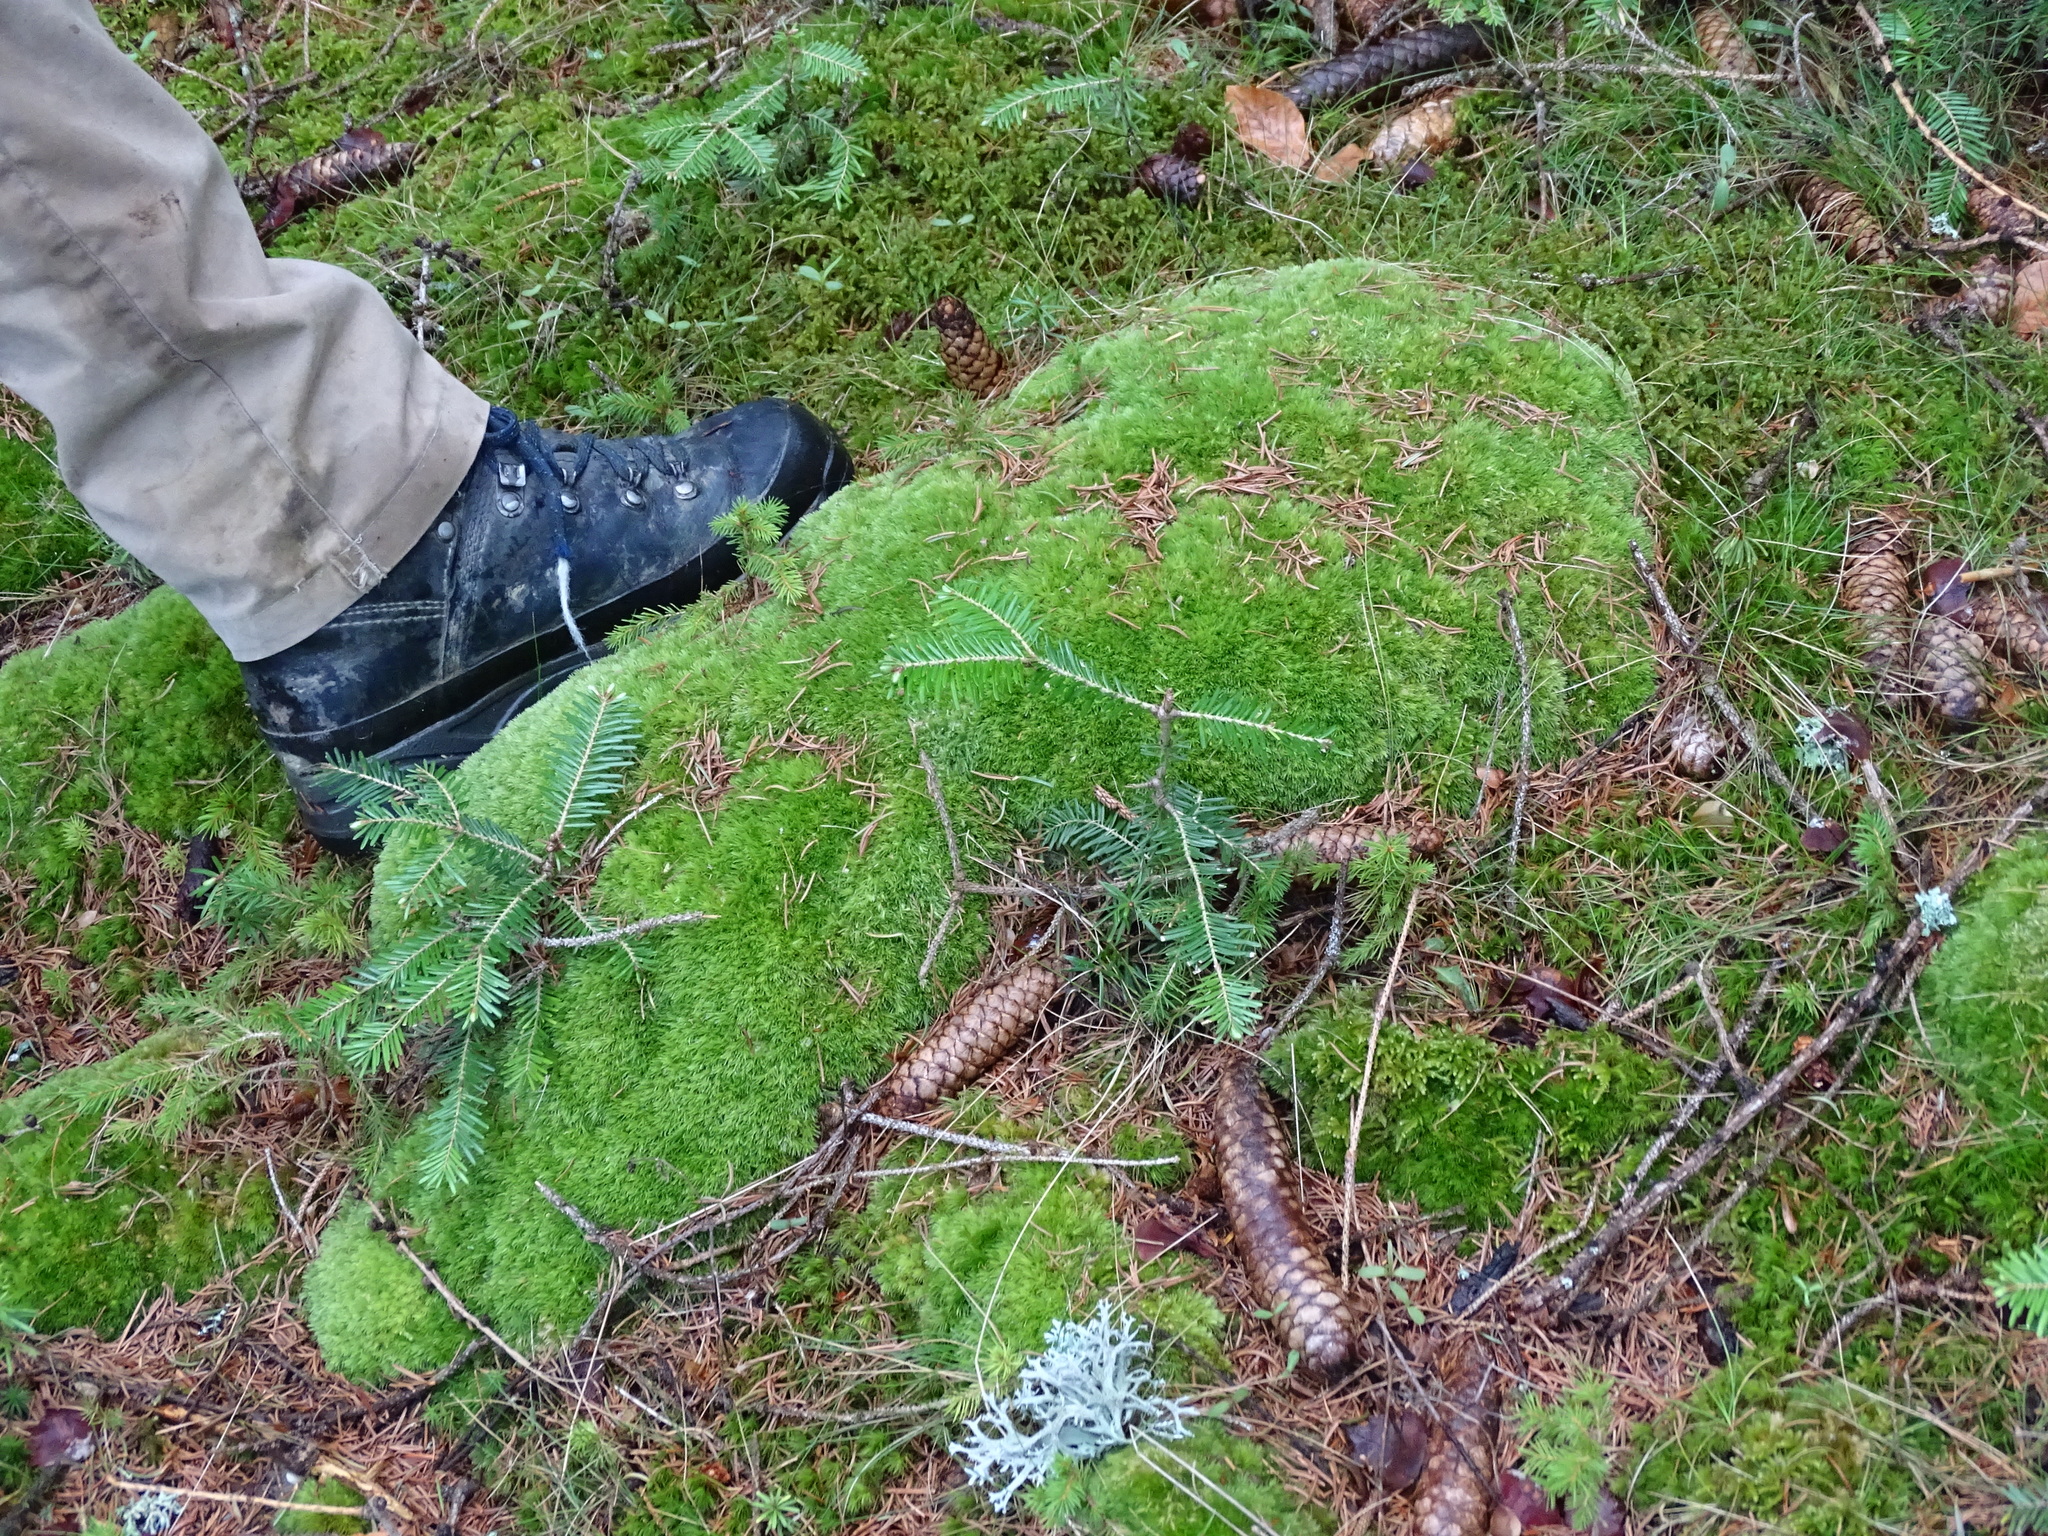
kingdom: Plantae
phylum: Bryophyta
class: Bryopsida
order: Dicranales
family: Leucobryaceae
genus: Leucobryum
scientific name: Leucobryum glaucum
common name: Large white-moss
